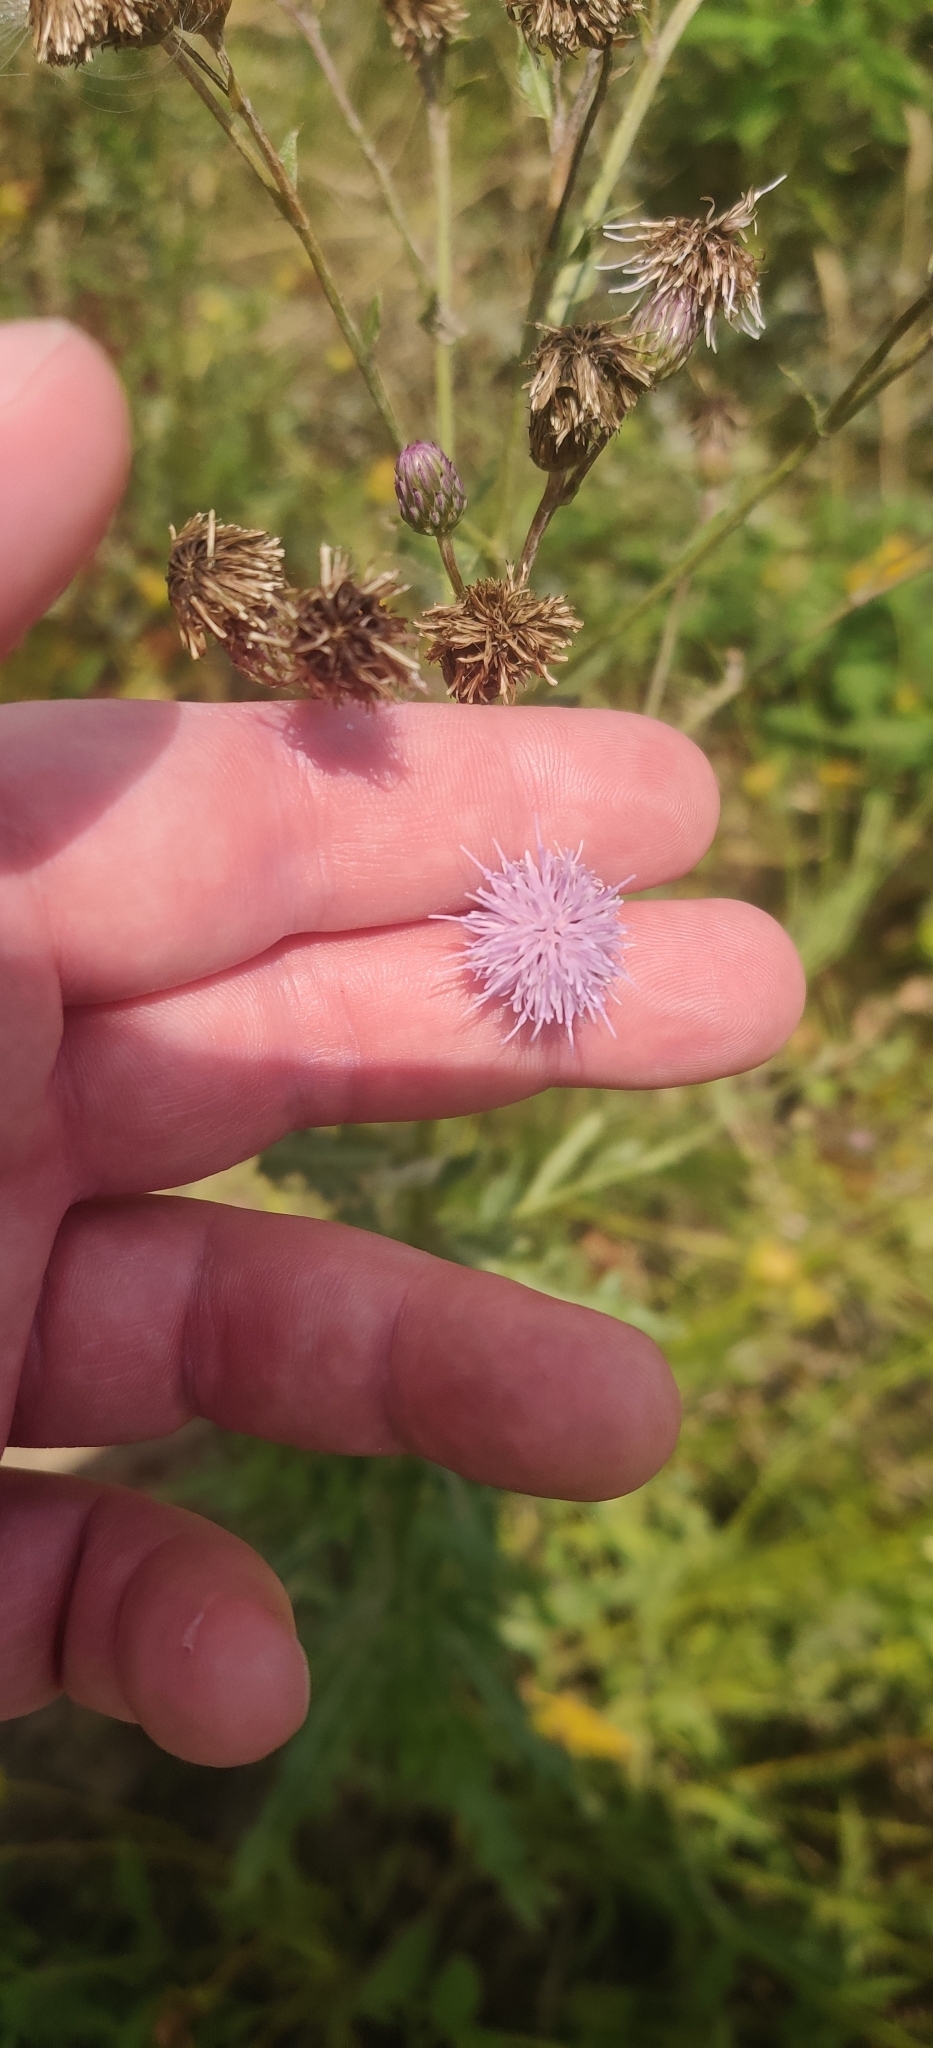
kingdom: Plantae
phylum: Tracheophyta
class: Magnoliopsida
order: Asterales
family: Asteraceae
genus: Cirsium
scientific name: Cirsium arvense
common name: Creeping thistle
